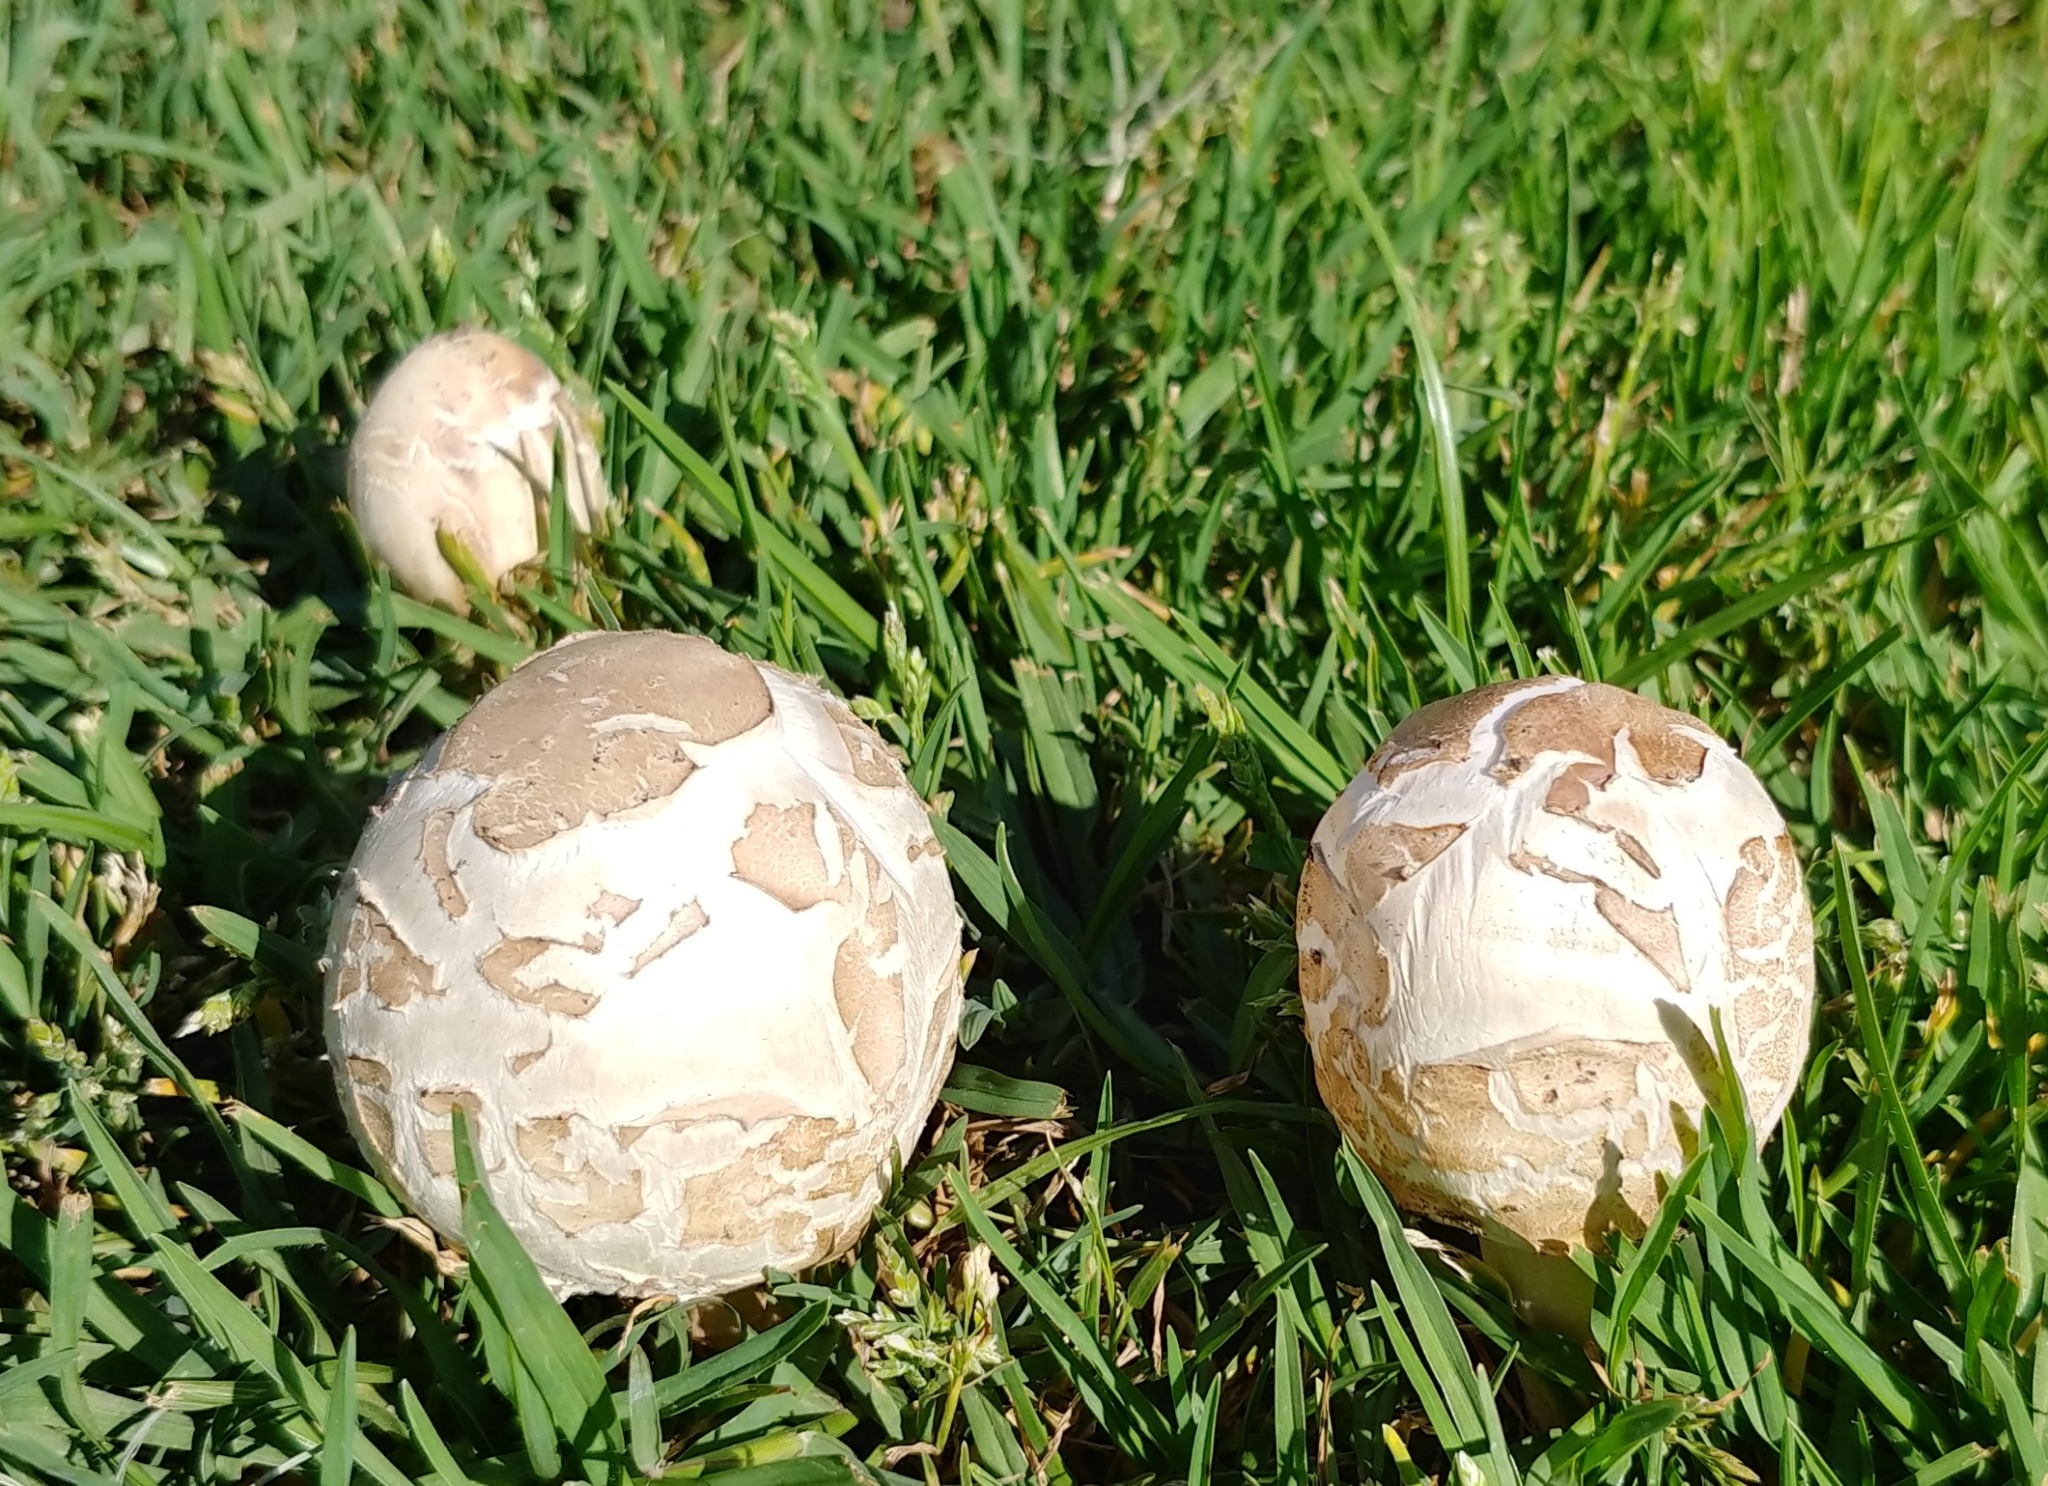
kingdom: Fungi
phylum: Basidiomycota
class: Agaricomycetes
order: Agaricales
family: Agaricaceae
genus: Chlorophyllum
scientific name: Chlorophyllum molybdites
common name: False parasol
